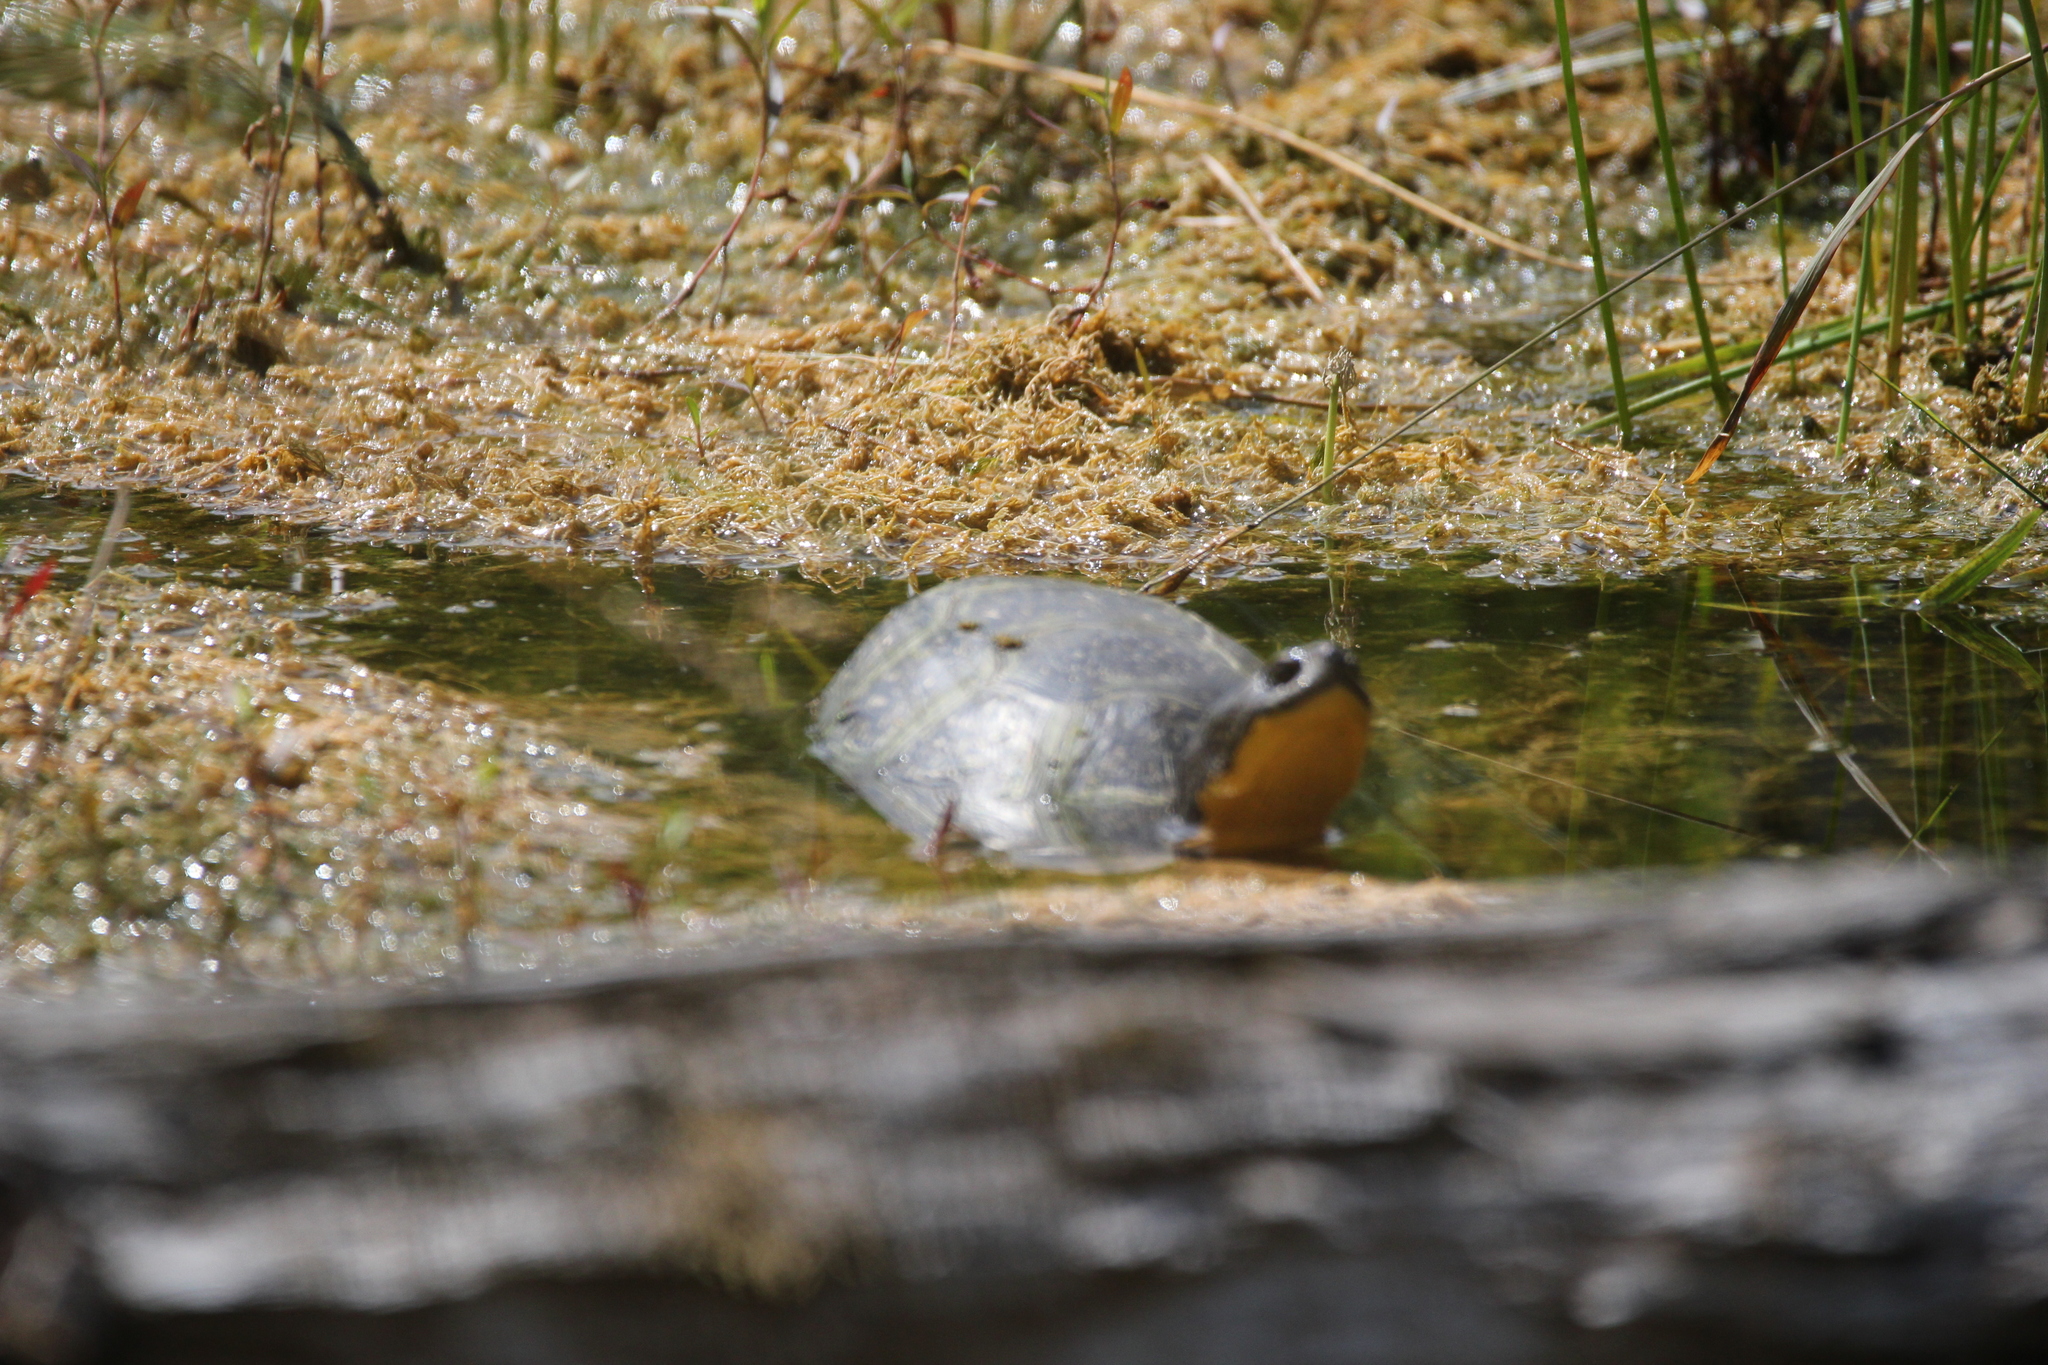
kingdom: Animalia
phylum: Chordata
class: Testudines
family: Emydidae
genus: Emys
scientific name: Emys blandingii
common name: Blanding's turtle
